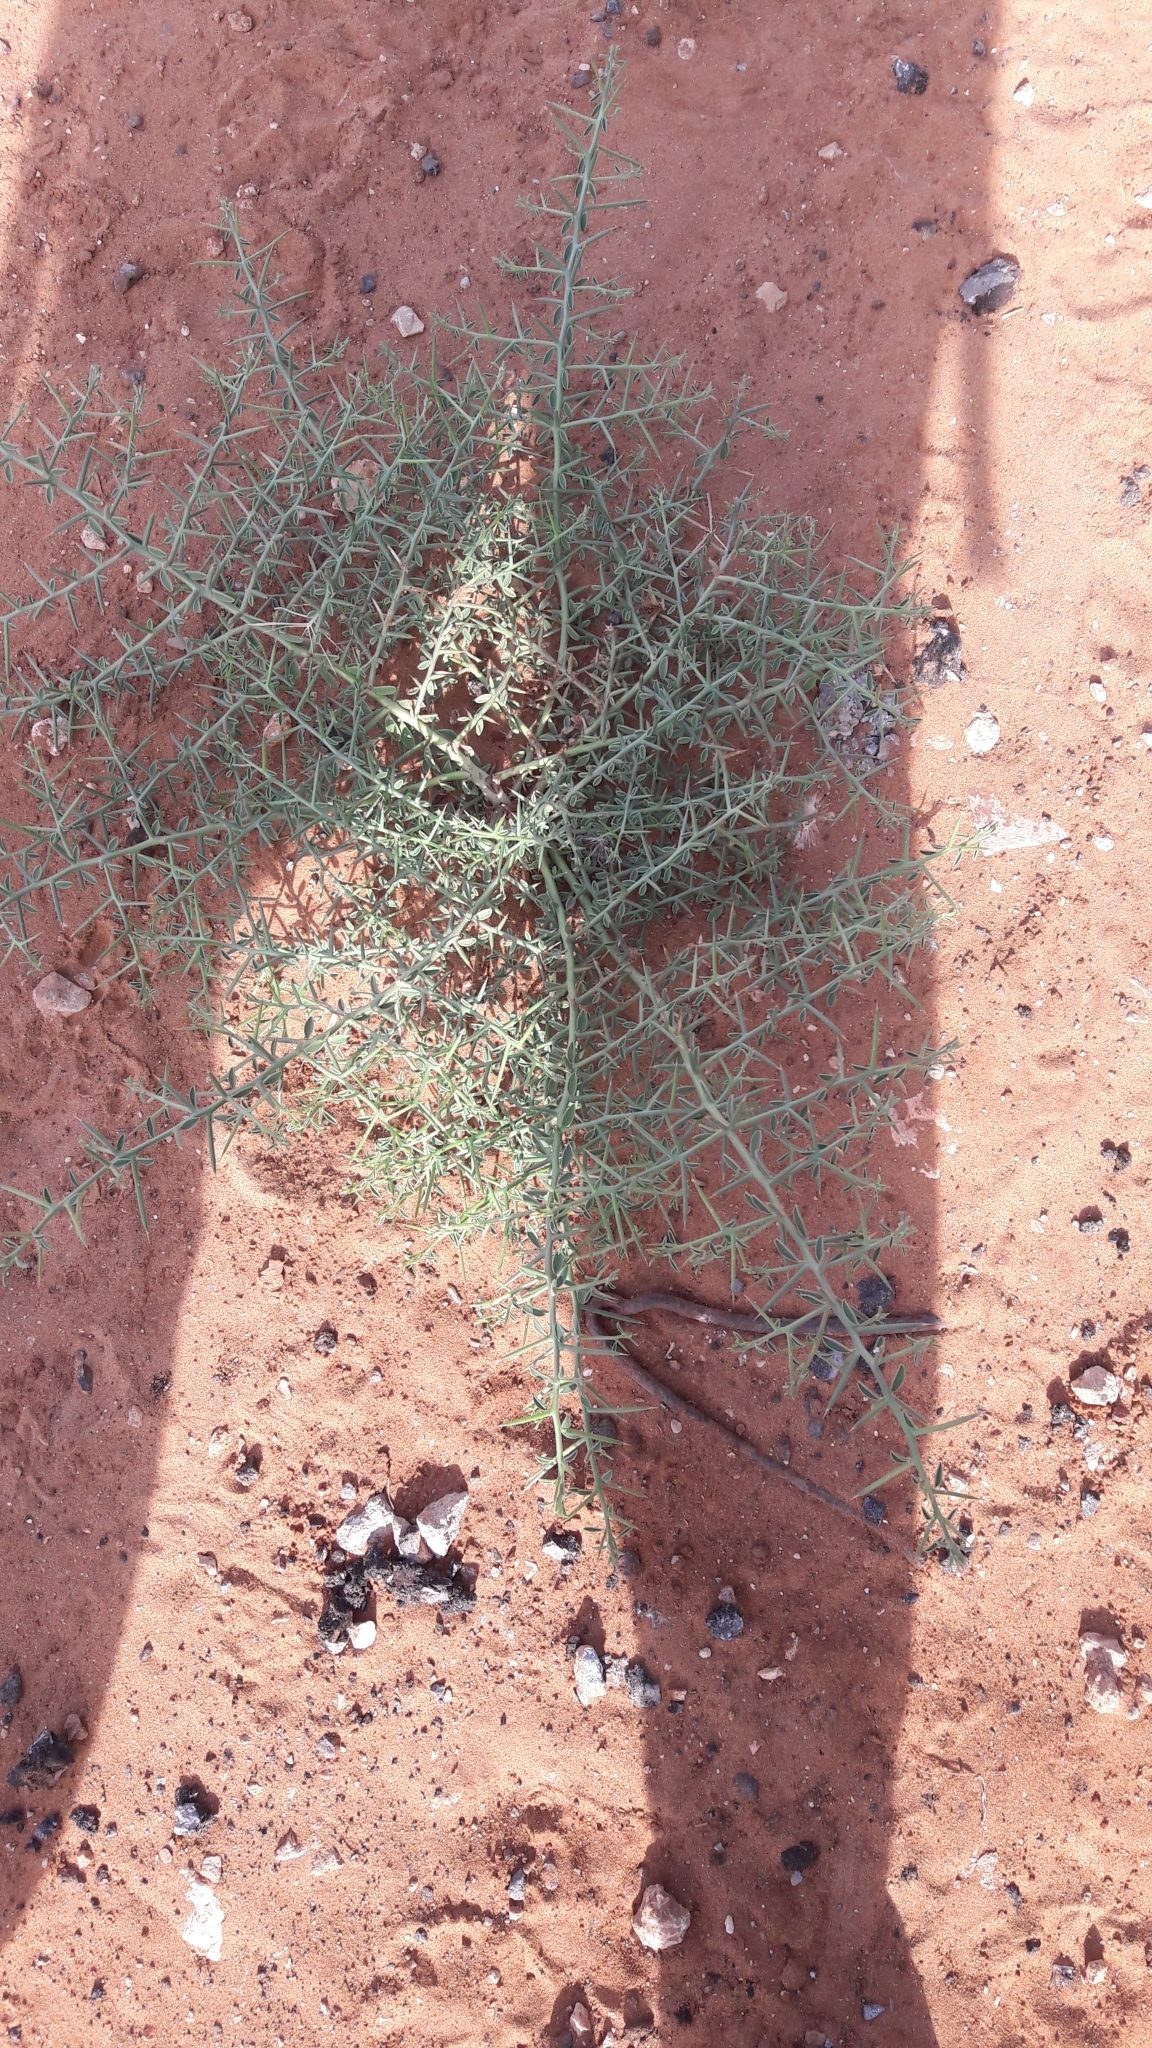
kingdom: Plantae
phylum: Tracheophyta
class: Magnoliopsida
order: Fabales
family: Fabaceae
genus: Alhagi
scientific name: Alhagi graecorum
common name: Persian mannaplant
